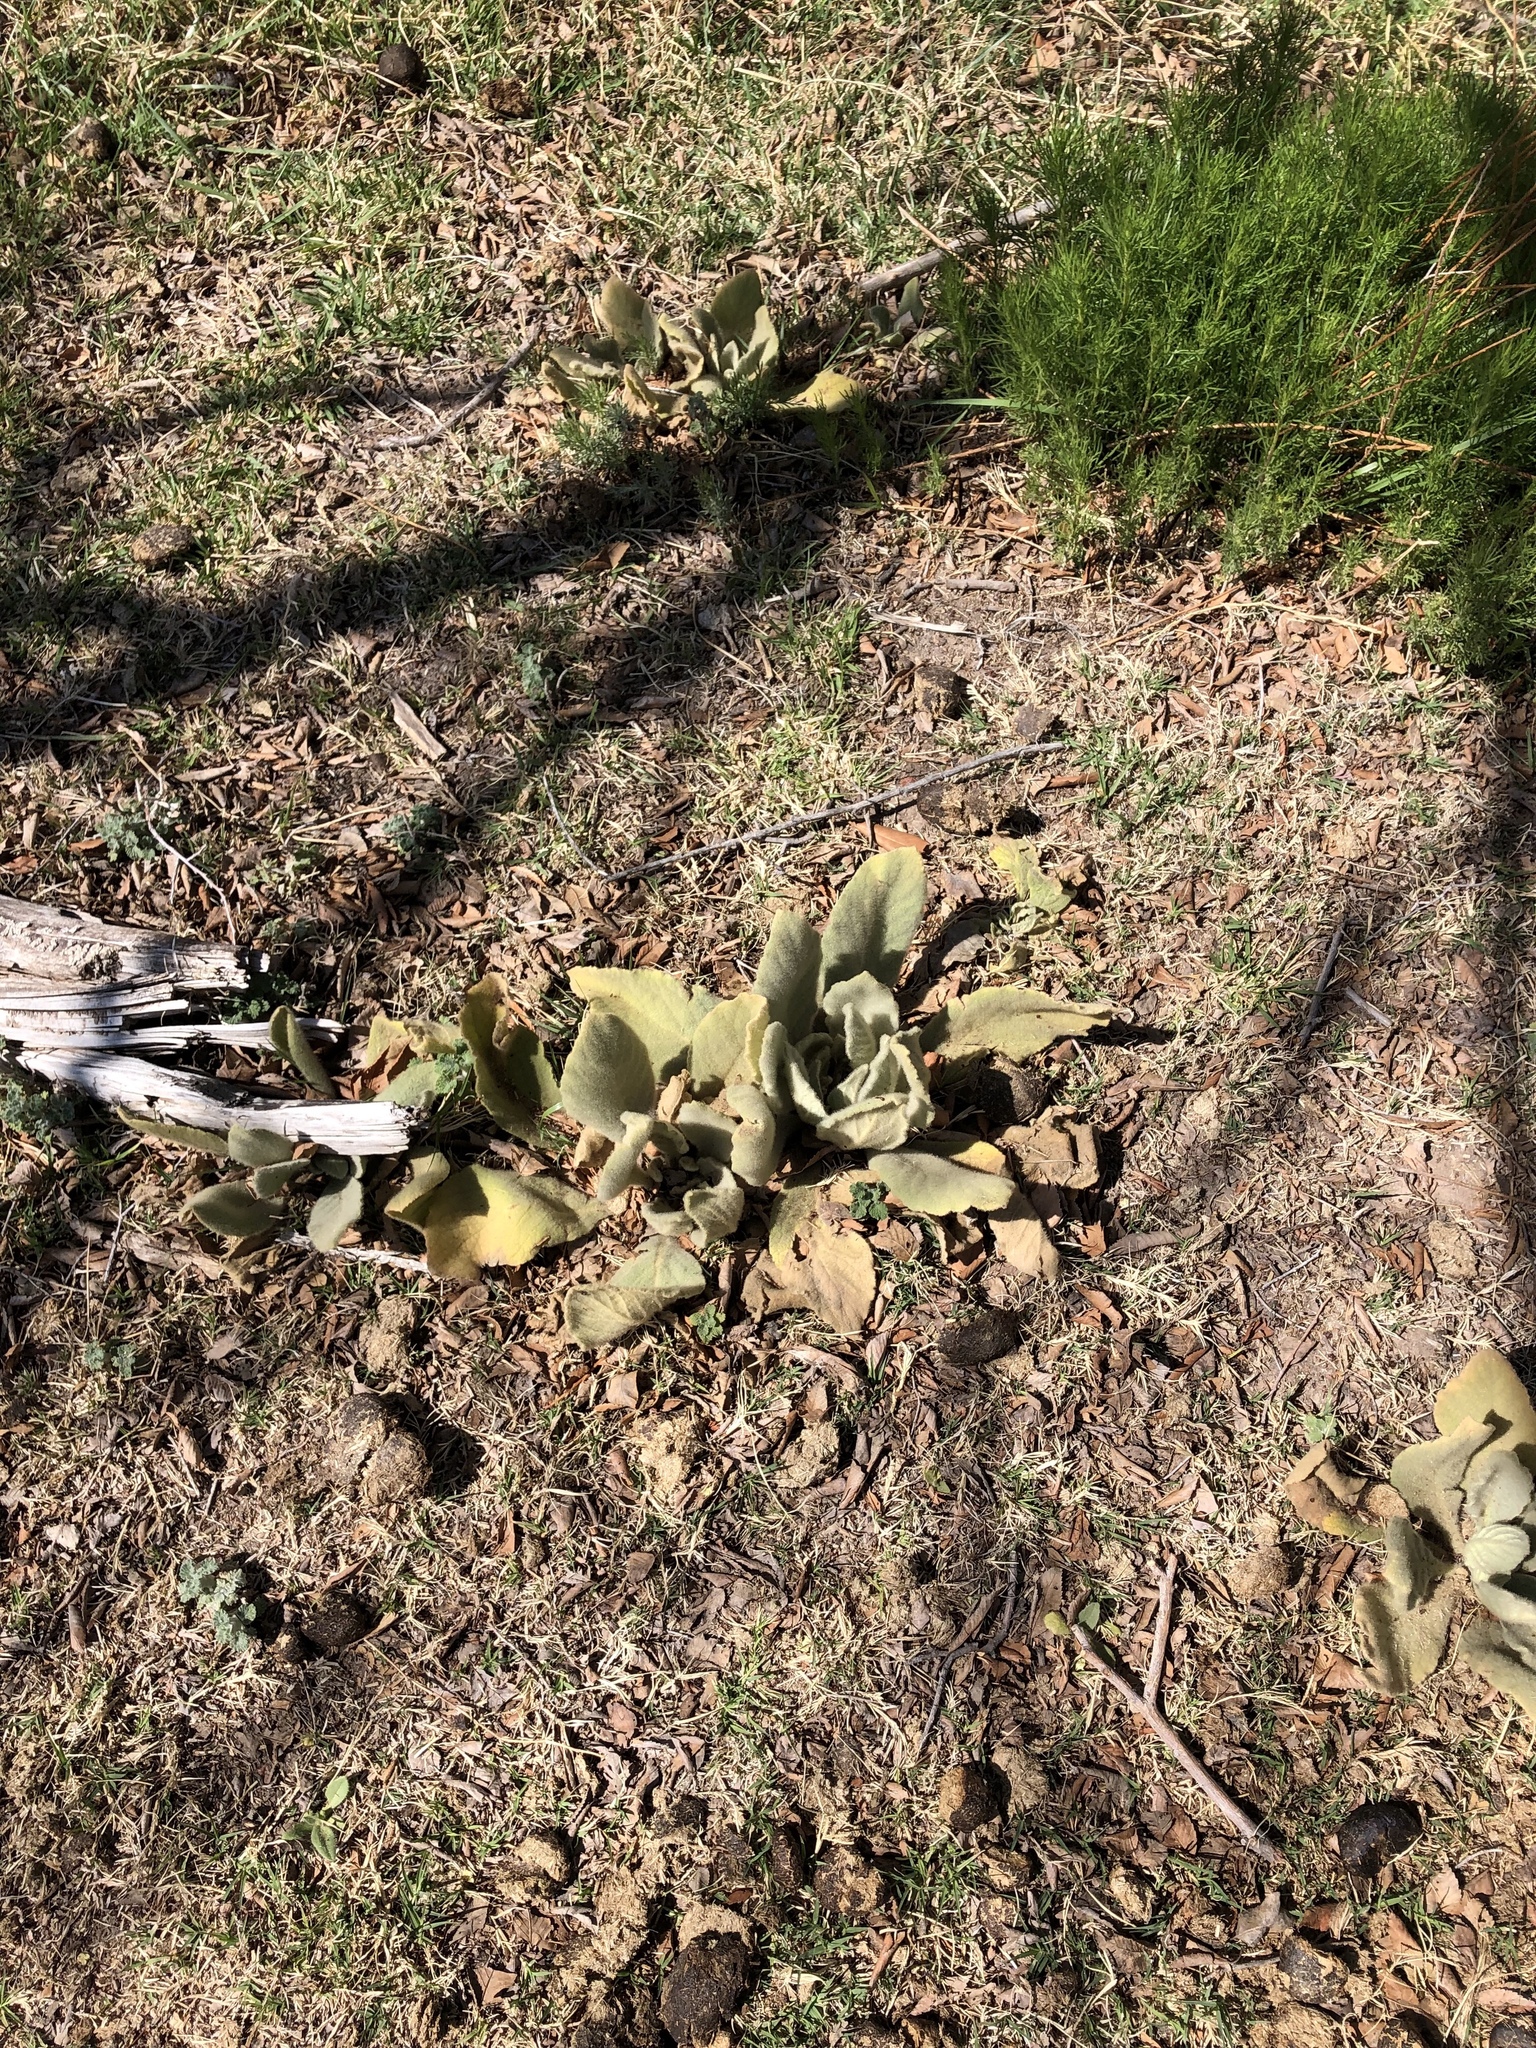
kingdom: Plantae
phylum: Tracheophyta
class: Magnoliopsida
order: Lamiales
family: Scrophulariaceae
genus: Verbascum
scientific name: Verbascum thapsus
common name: Common mullein
